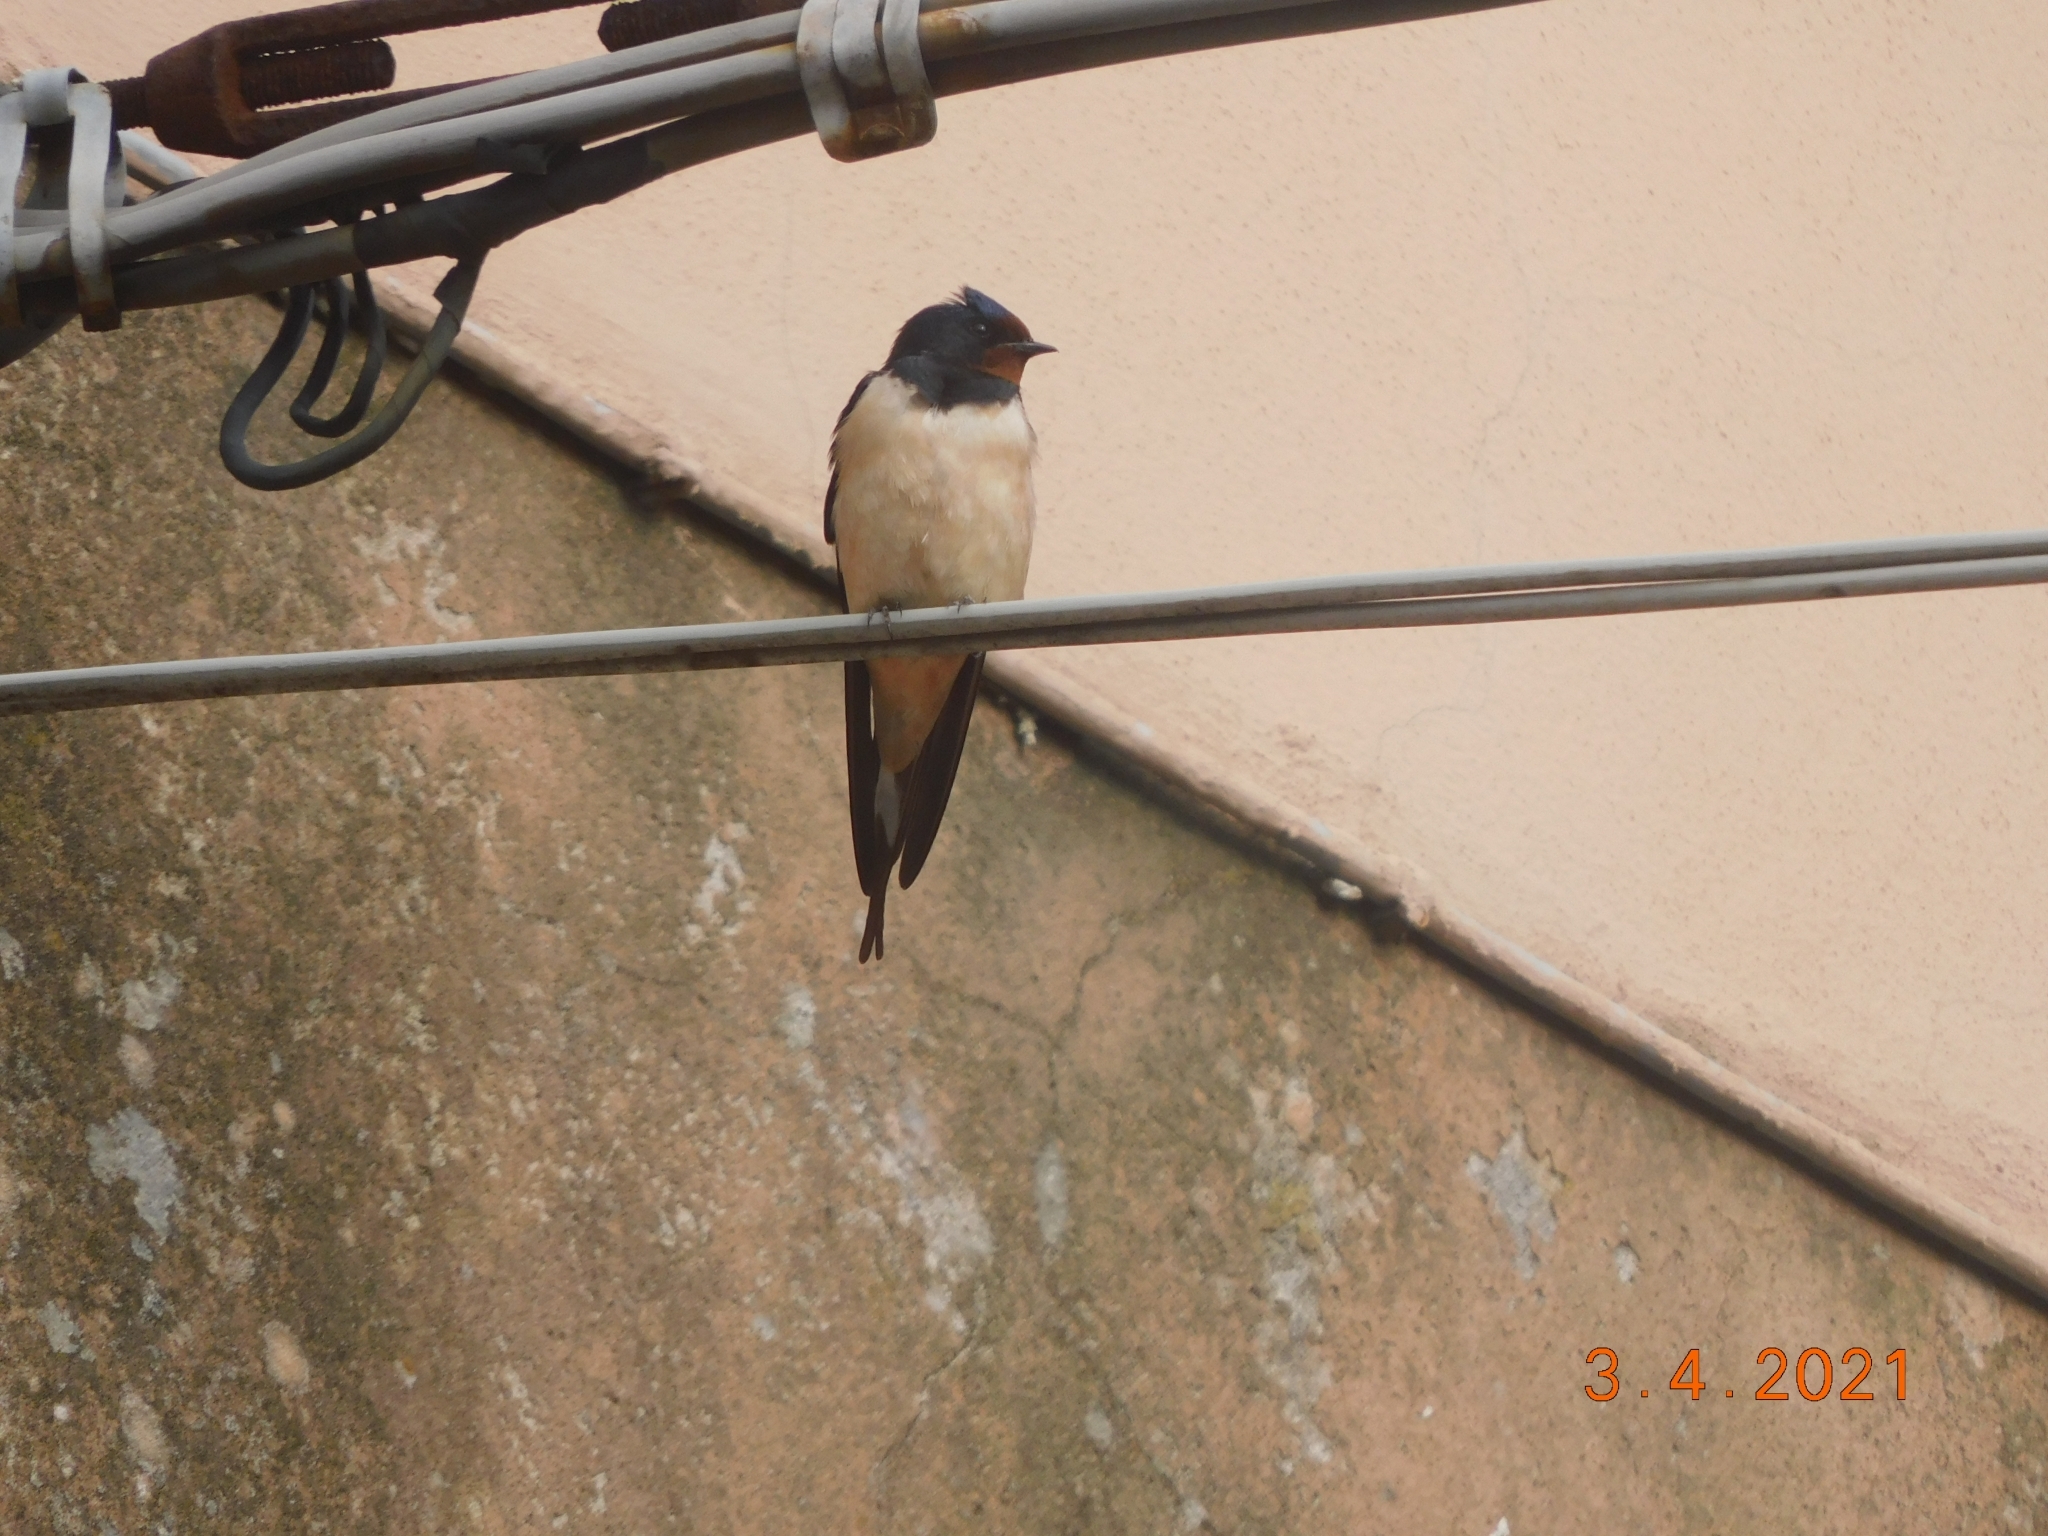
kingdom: Animalia
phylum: Chordata
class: Aves
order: Passeriformes
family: Hirundinidae
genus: Hirundo
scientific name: Hirundo rustica
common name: Barn swallow
